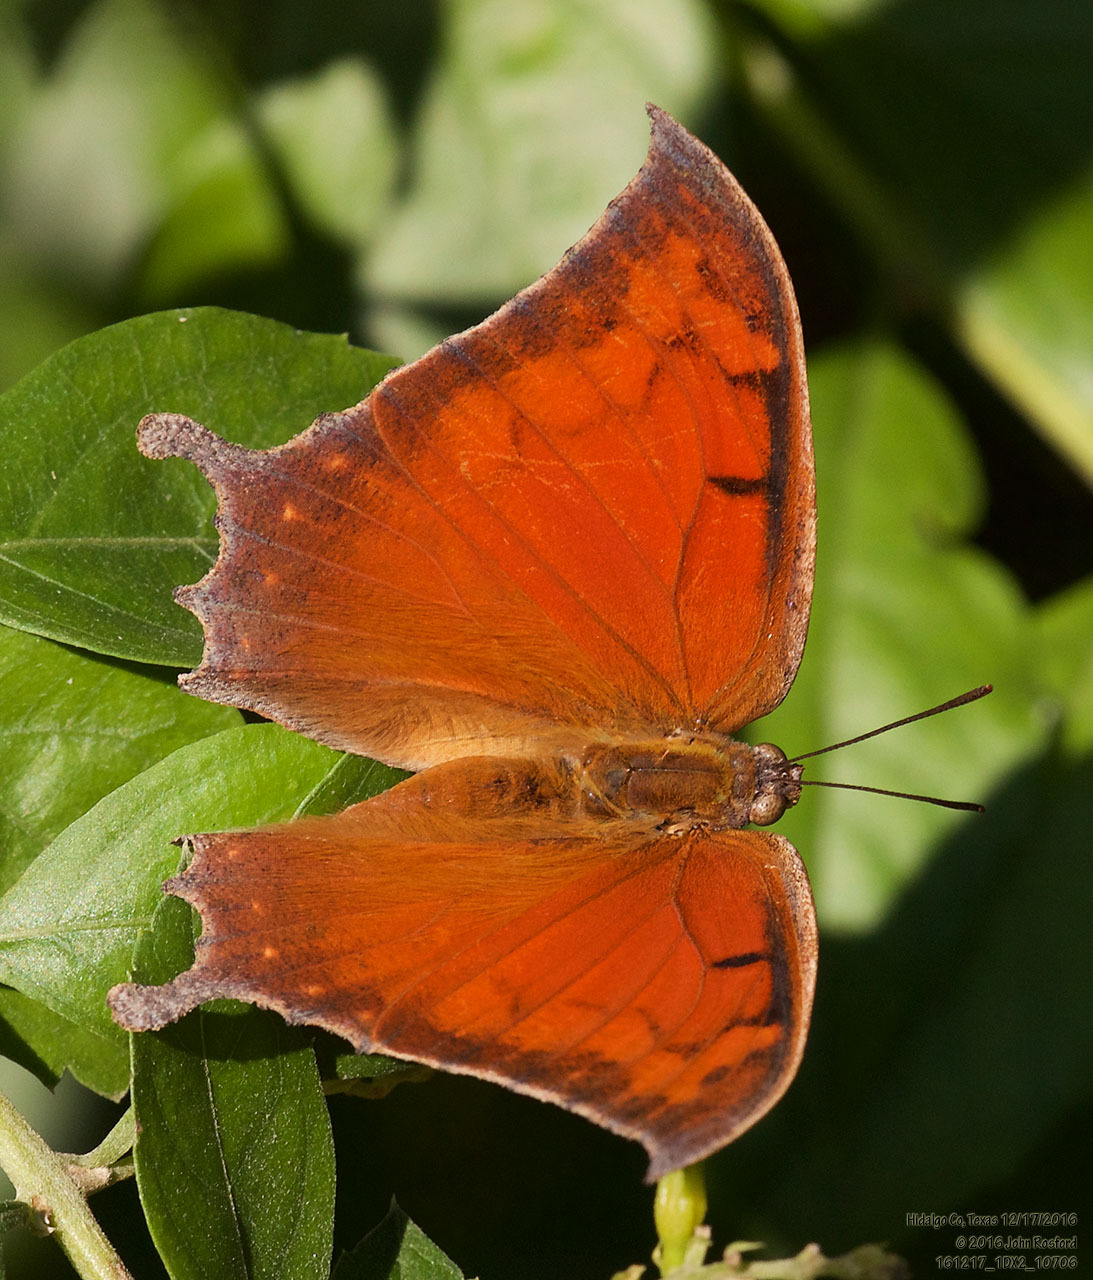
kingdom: Animalia
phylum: Arthropoda
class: Insecta
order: Lepidoptera
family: Nymphalidae
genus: Anaea
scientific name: Anaea aidea
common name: Tropical leafwing
